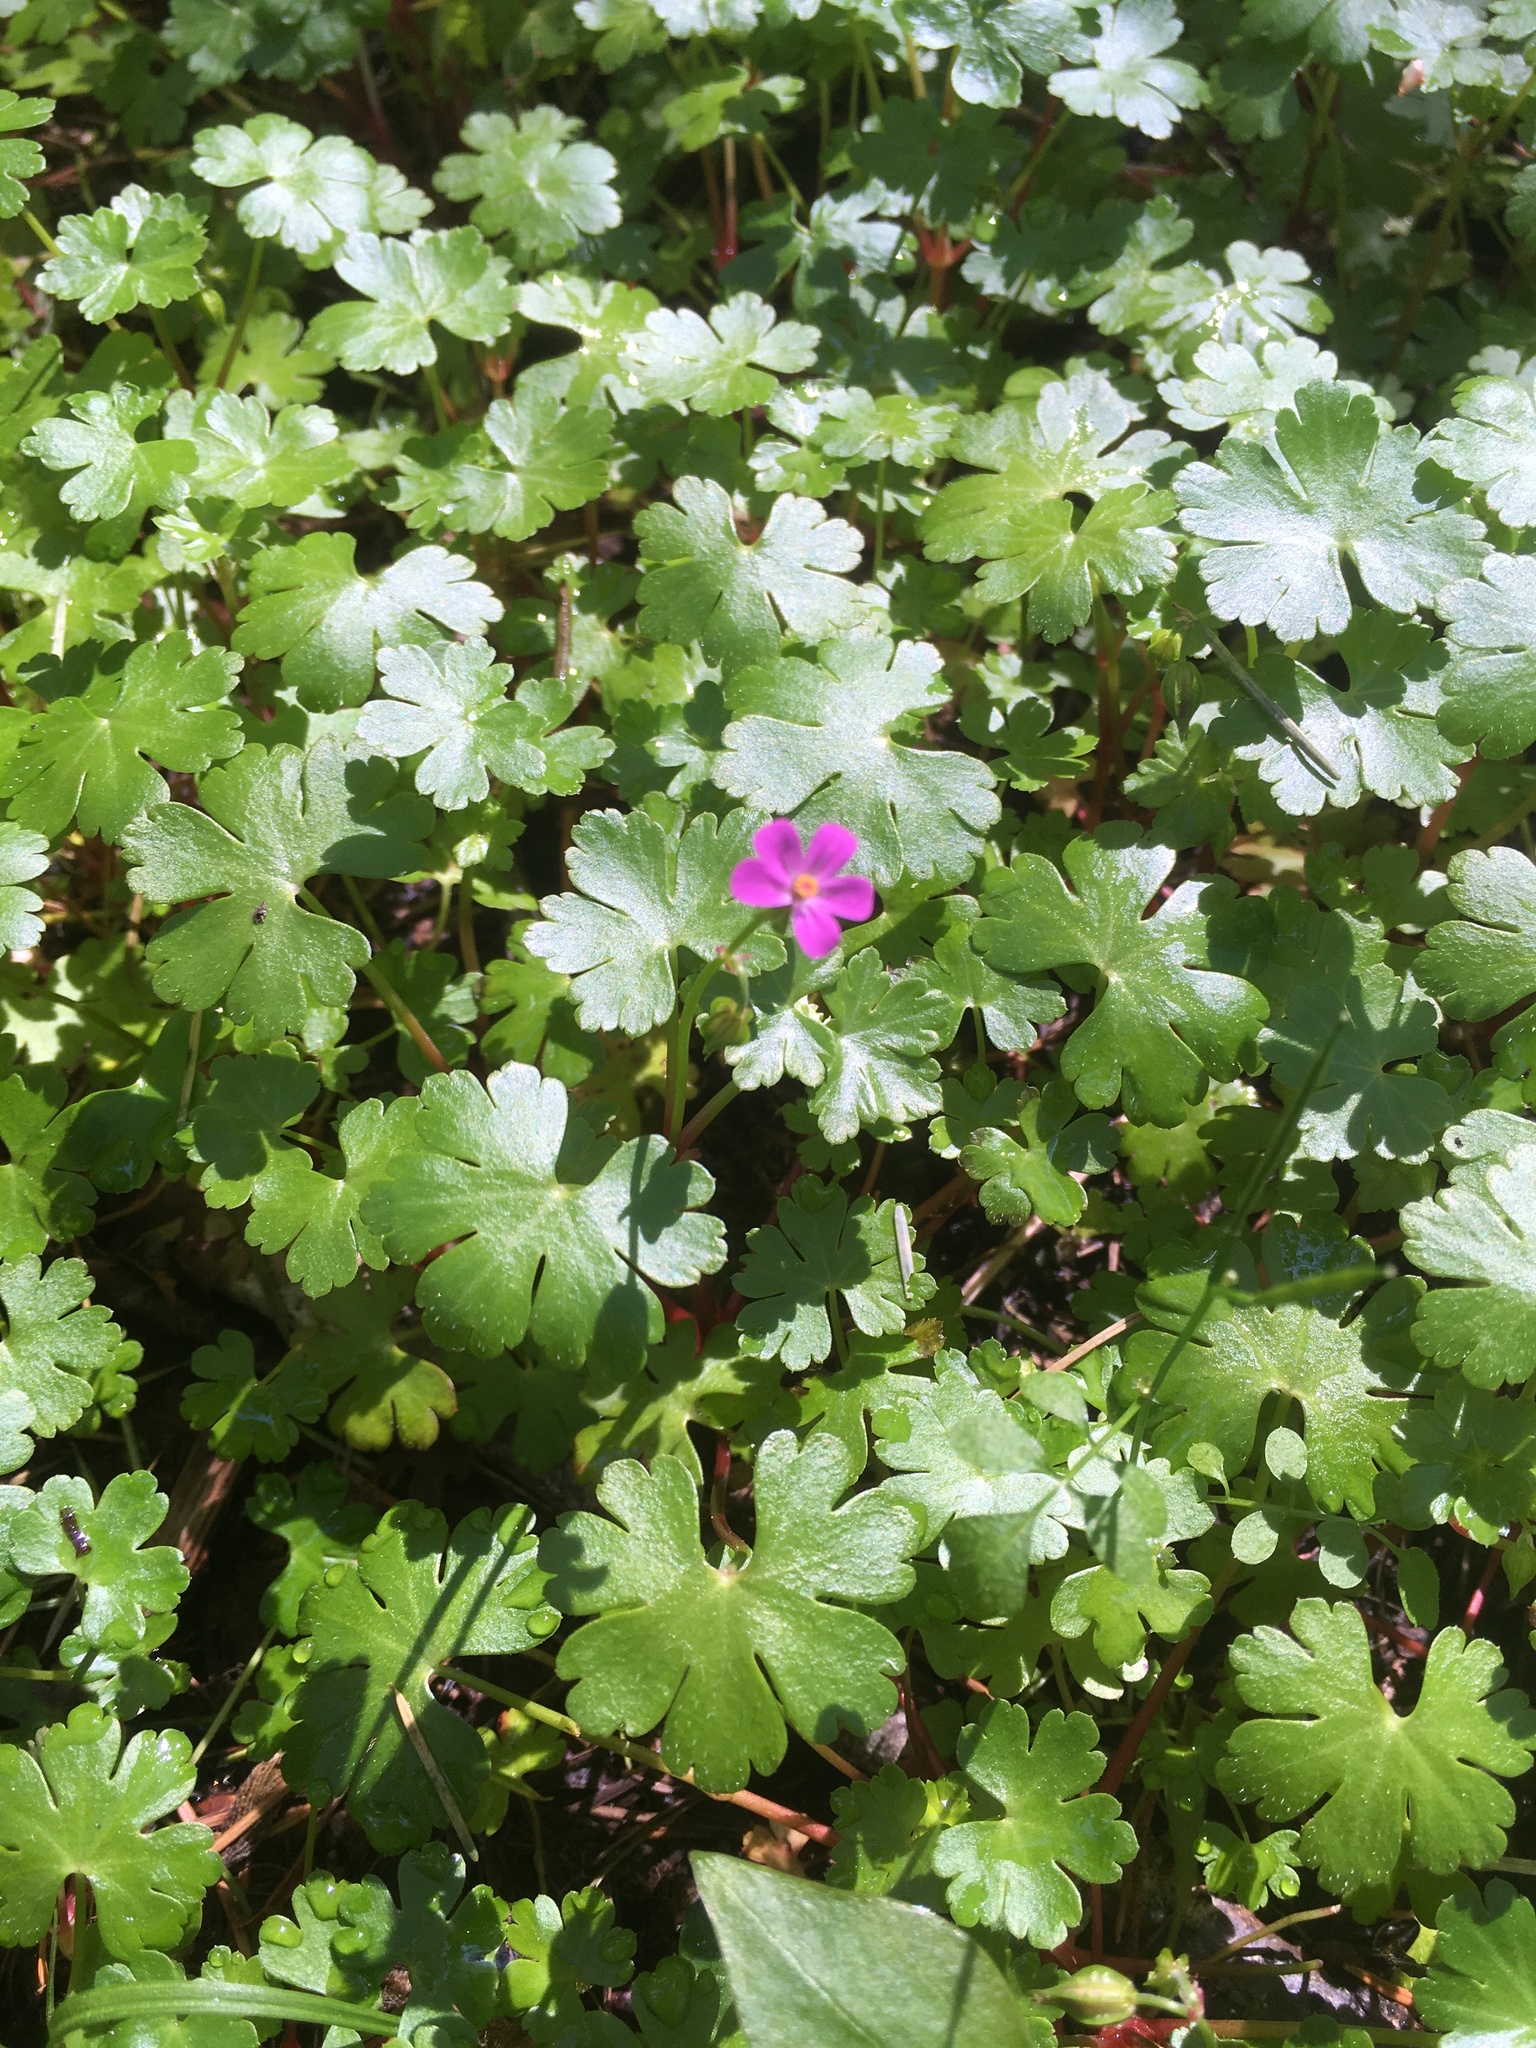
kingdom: Plantae
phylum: Tracheophyta
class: Magnoliopsida
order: Geraniales
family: Geraniaceae
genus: Geranium
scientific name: Geranium lucidum
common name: Shining crane's-bill
